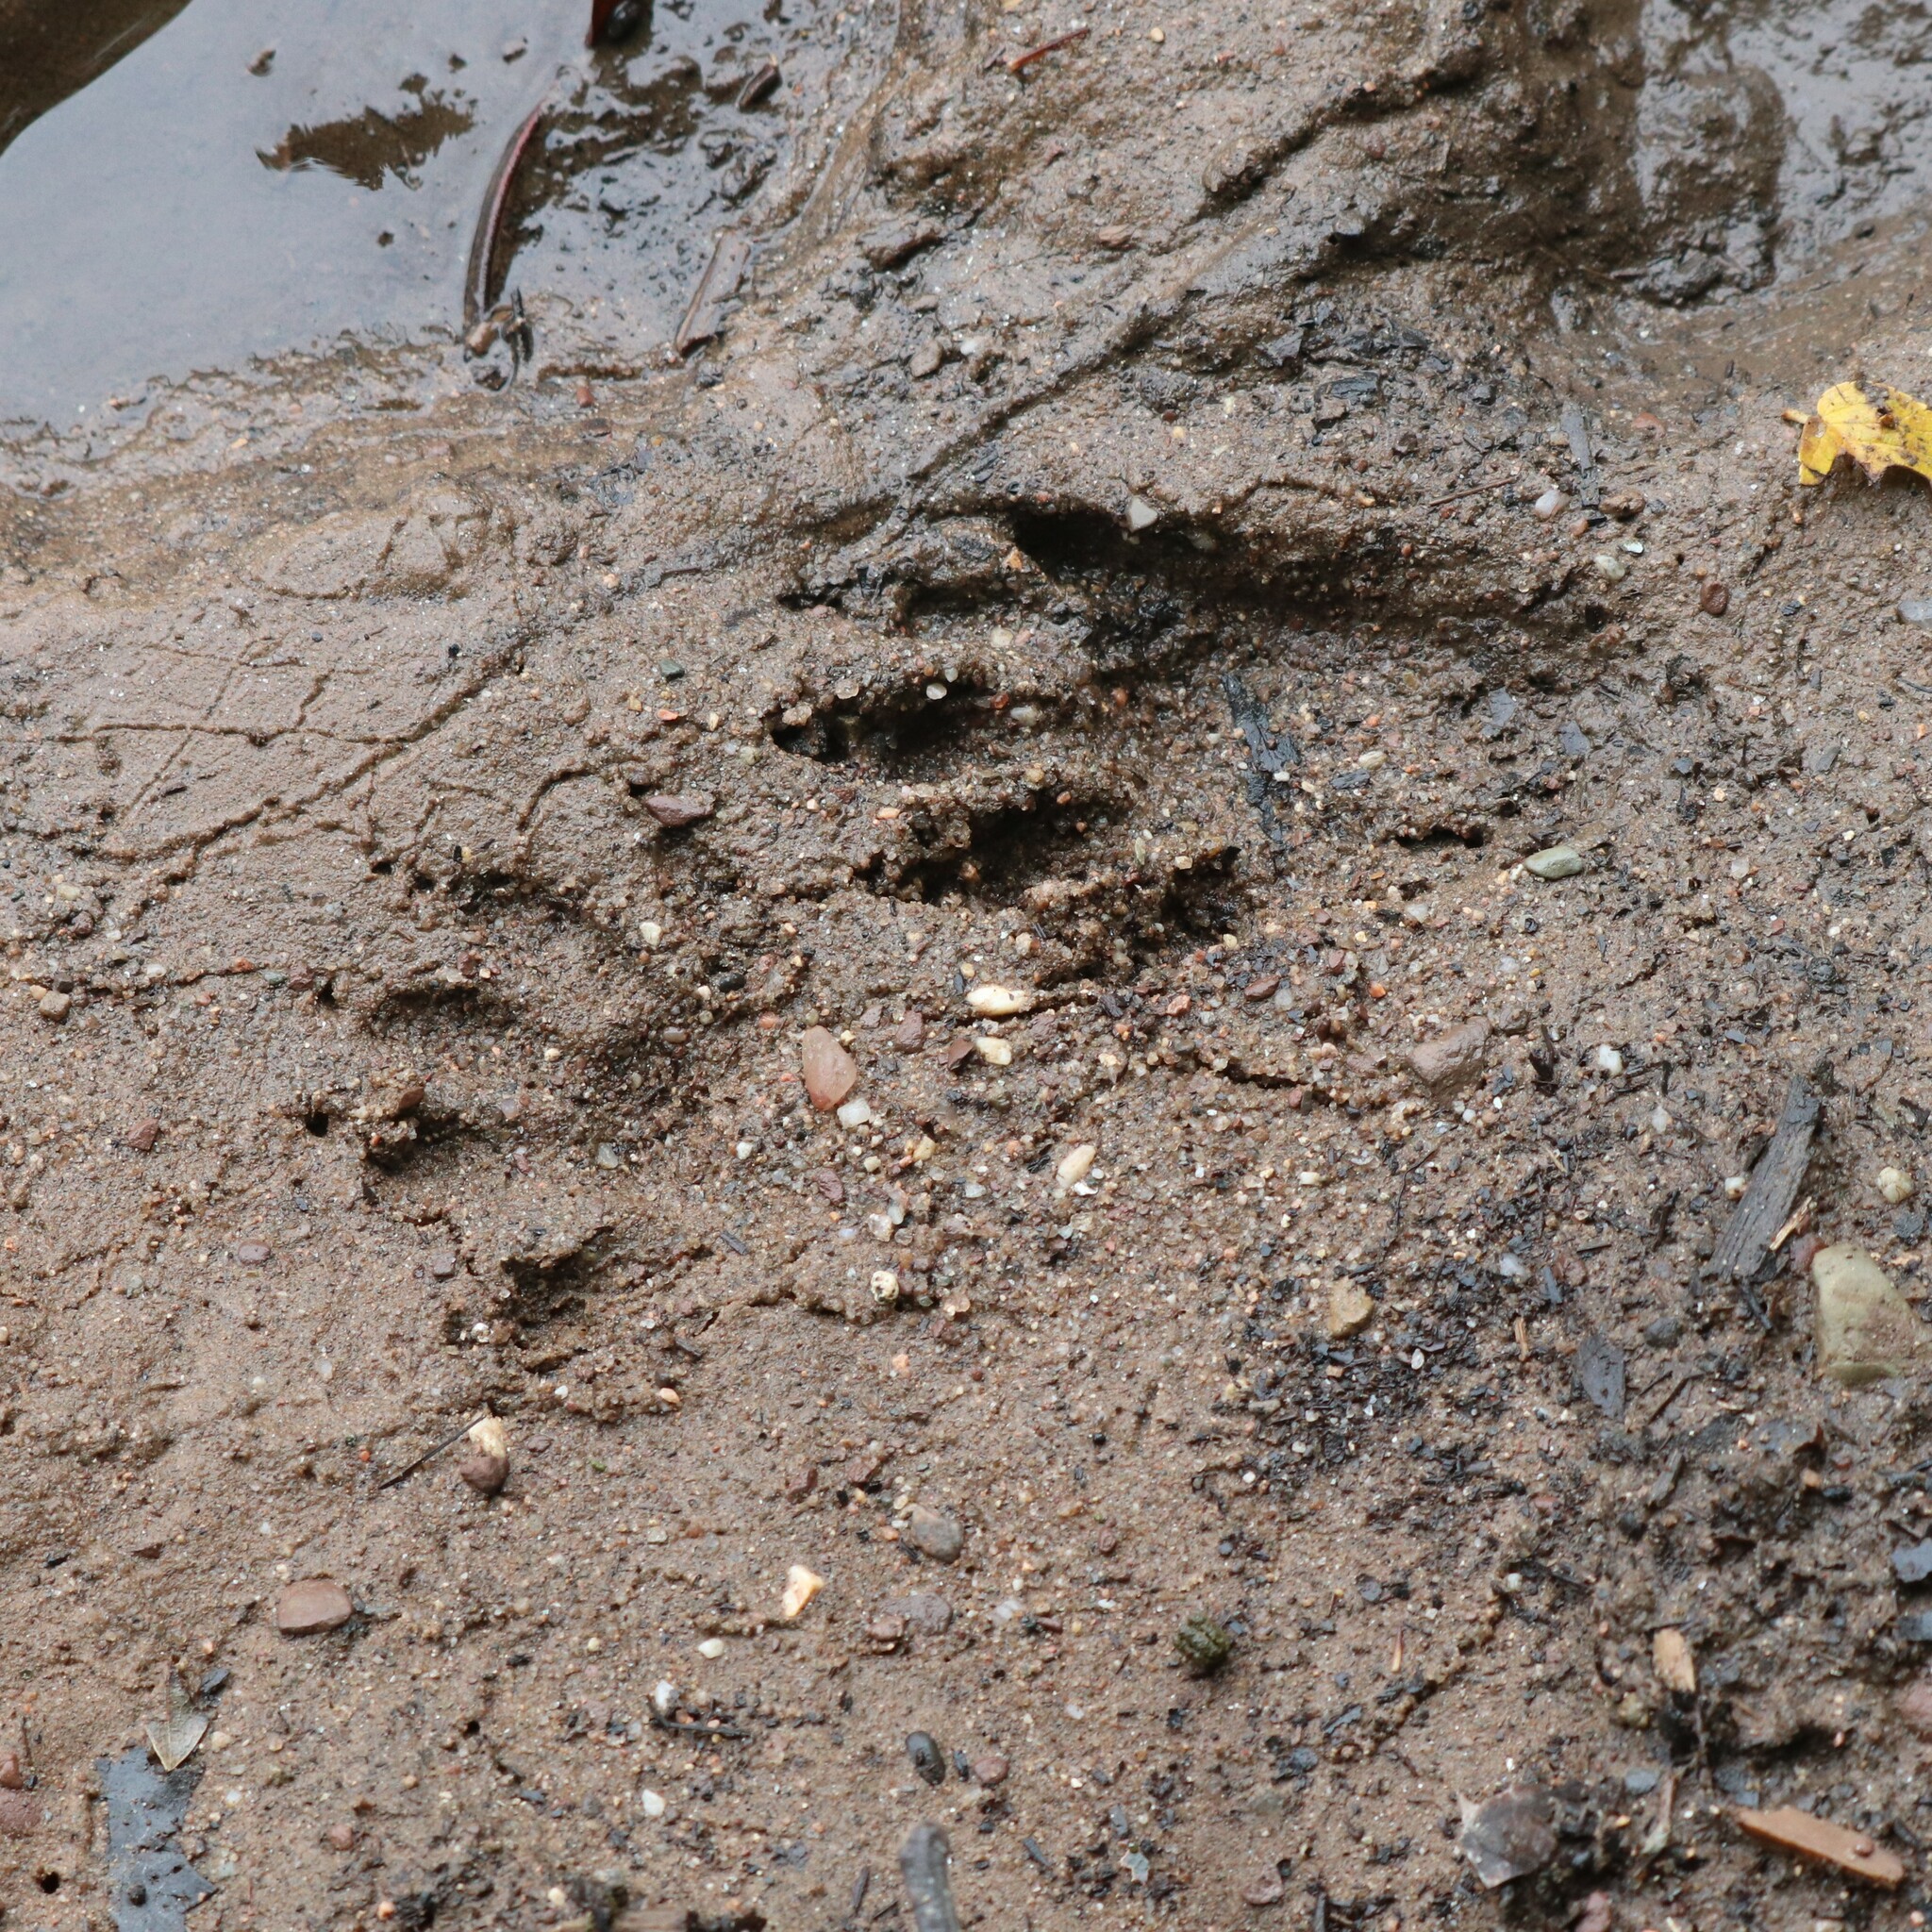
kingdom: Animalia
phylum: Chordata
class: Mammalia
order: Carnivora
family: Procyonidae
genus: Procyon
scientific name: Procyon lotor
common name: Raccoon
